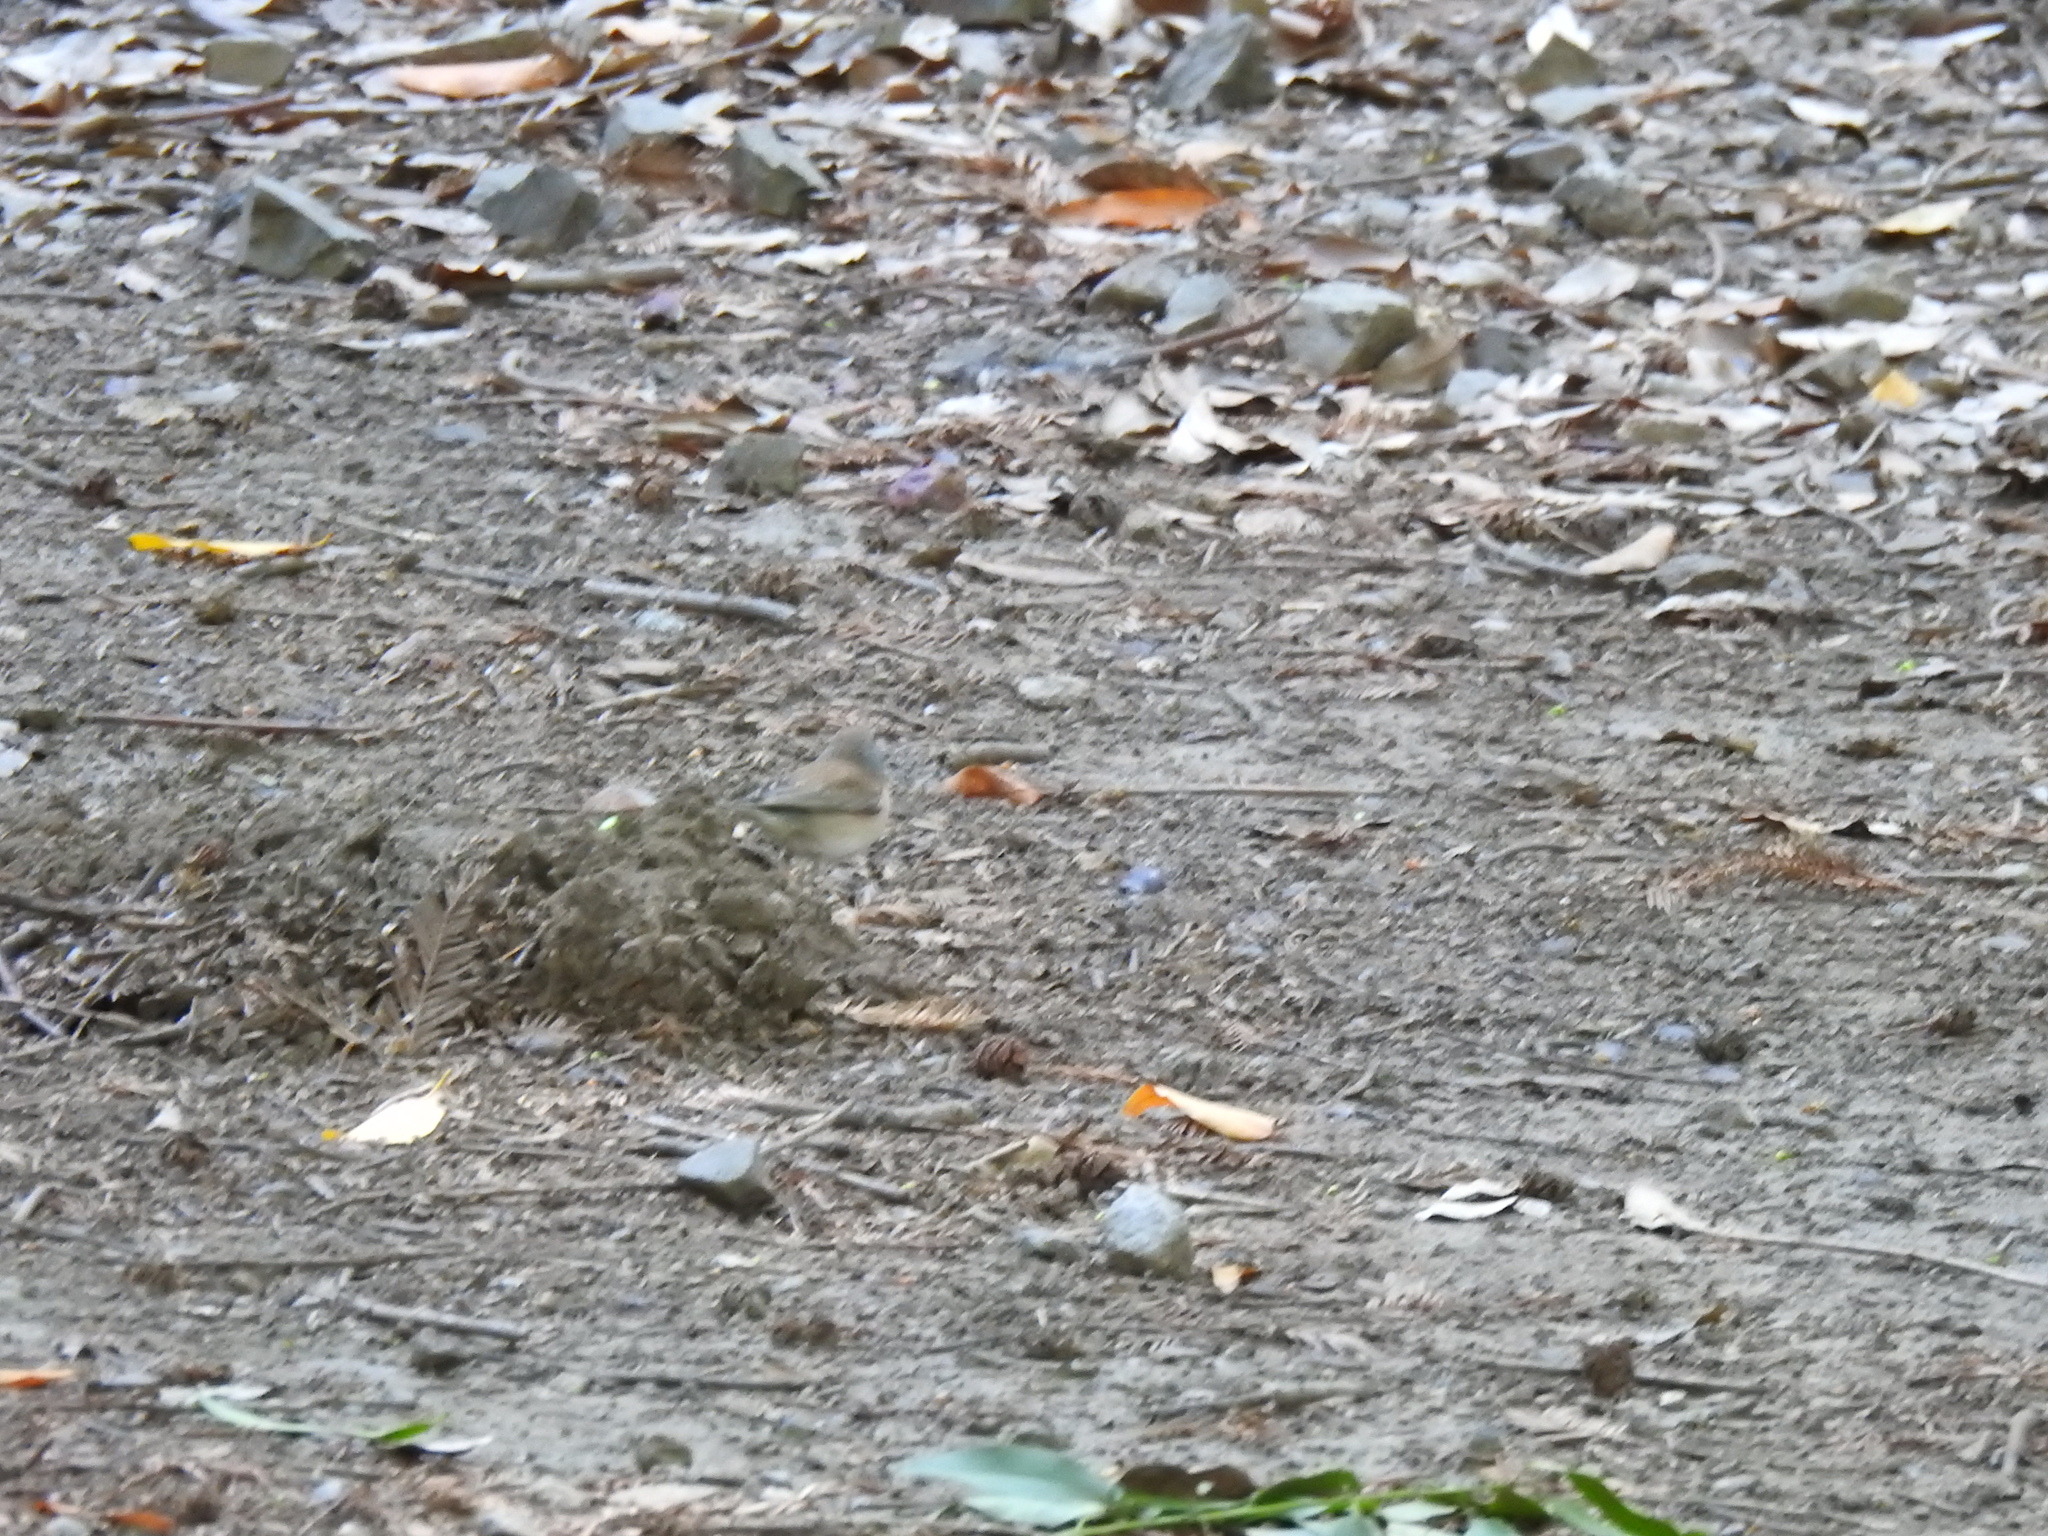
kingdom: Animalia
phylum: Chordata
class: Aves
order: Passeriformes
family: Passerellidae
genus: Junco
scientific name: Junco hyemalis
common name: Dark-eyed junco
